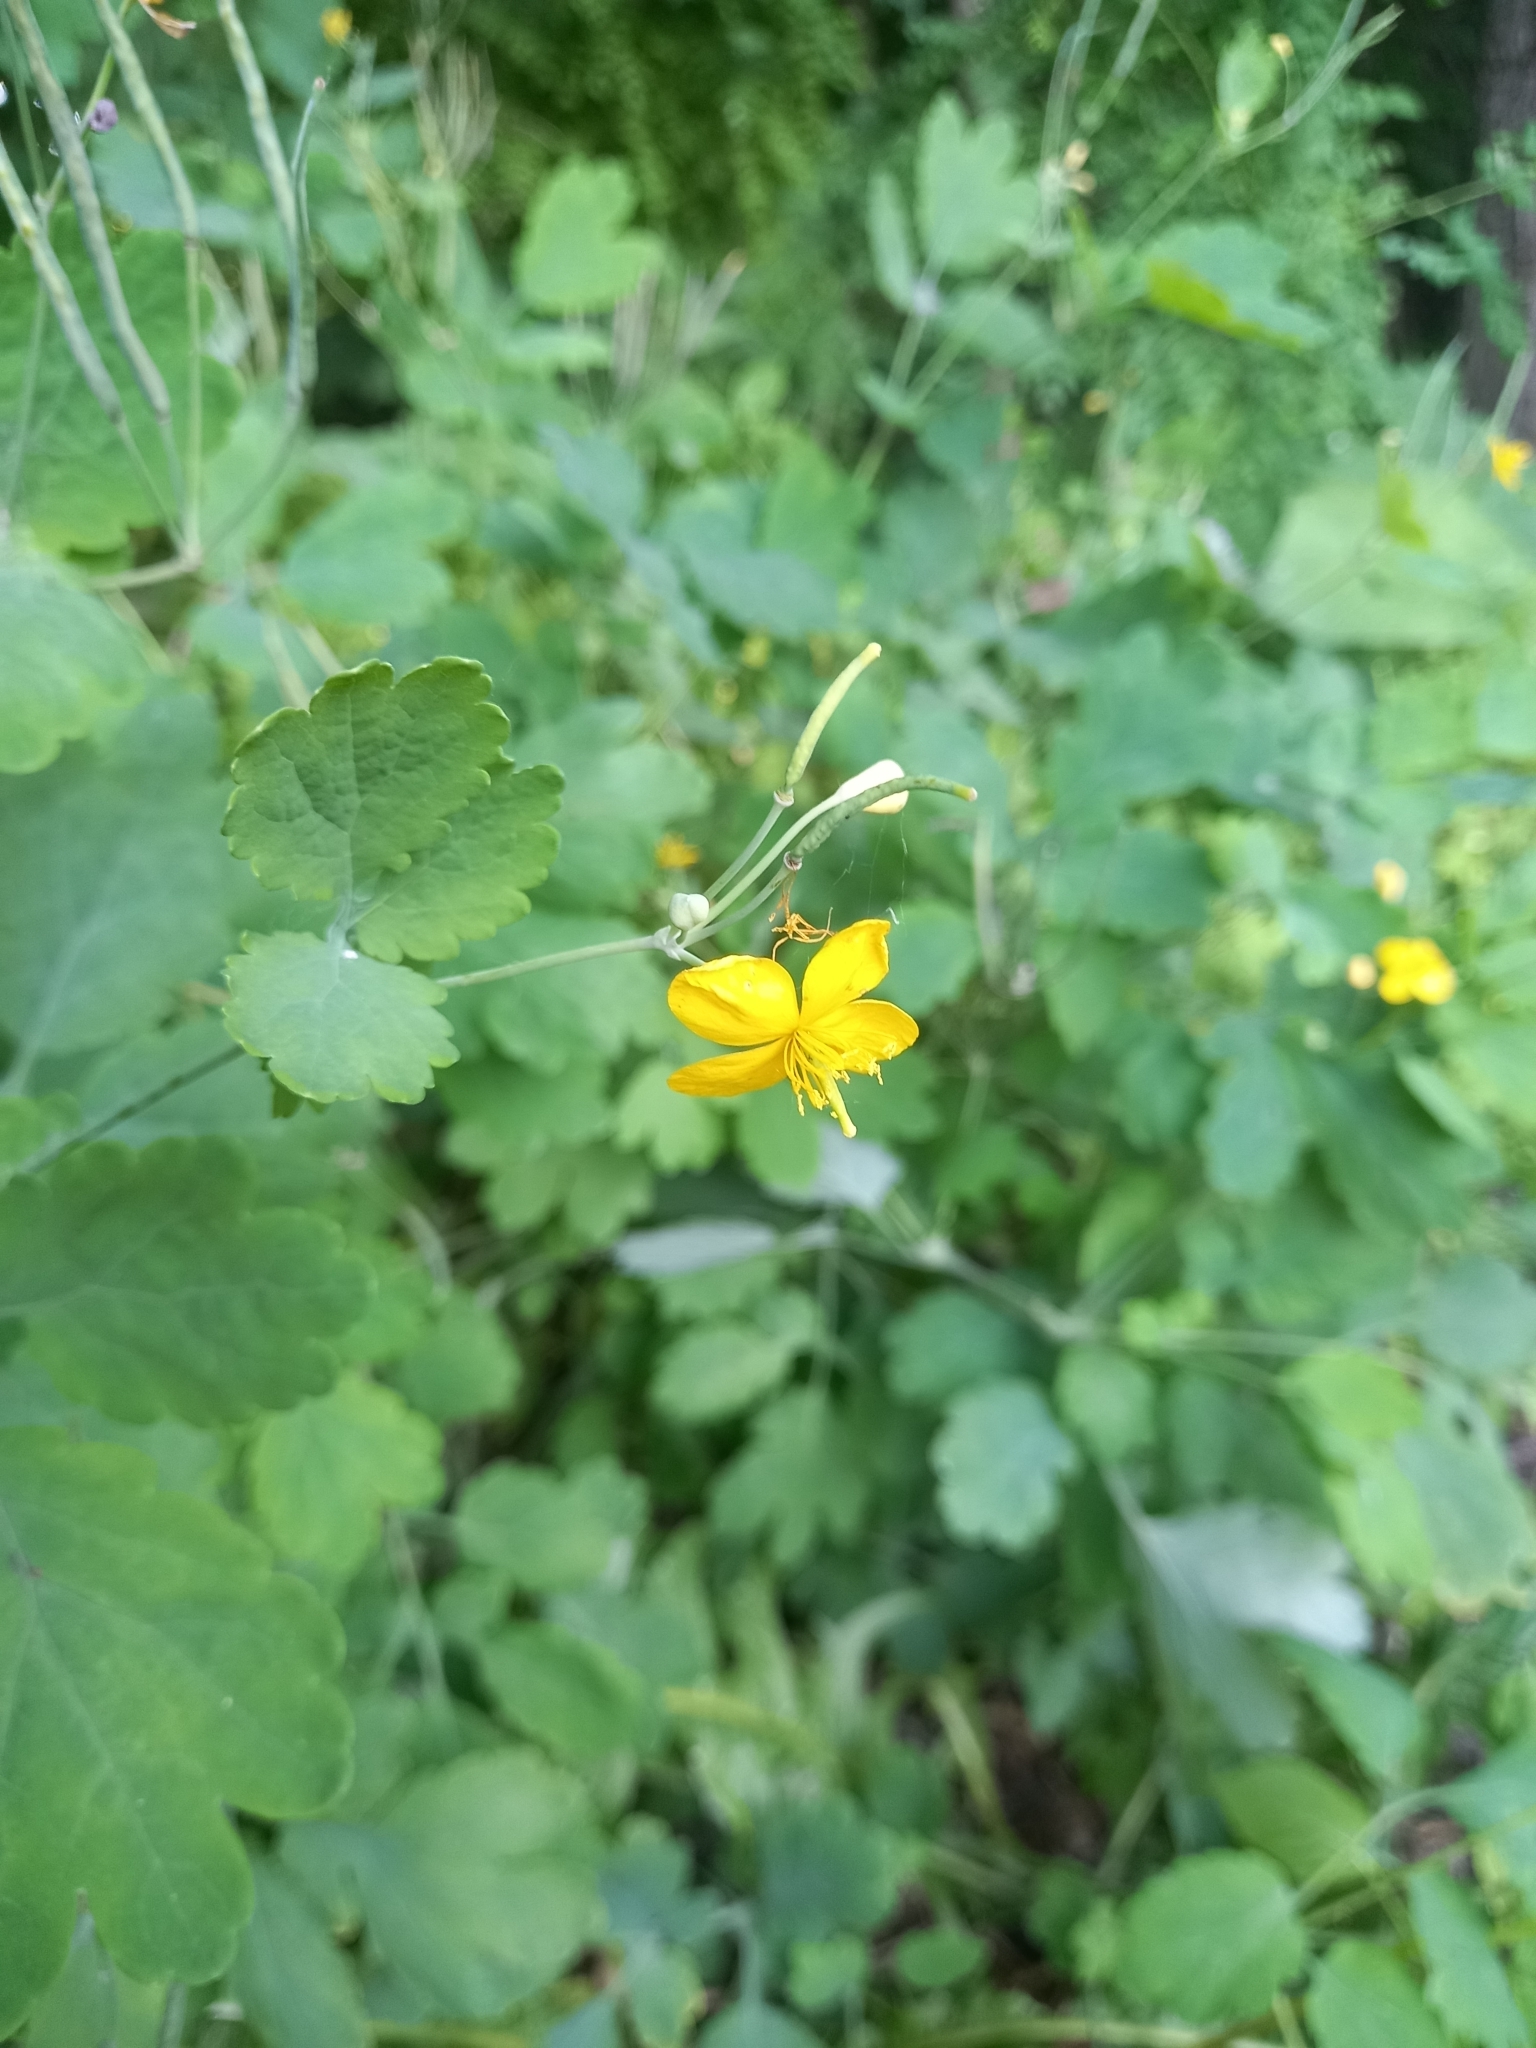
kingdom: Plantae
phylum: Tracheophyta
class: Magnoliopsida
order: Ranunculales
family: Papaveraceae
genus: Chelidonium
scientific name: Chelidonium majus
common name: Greater celandine
